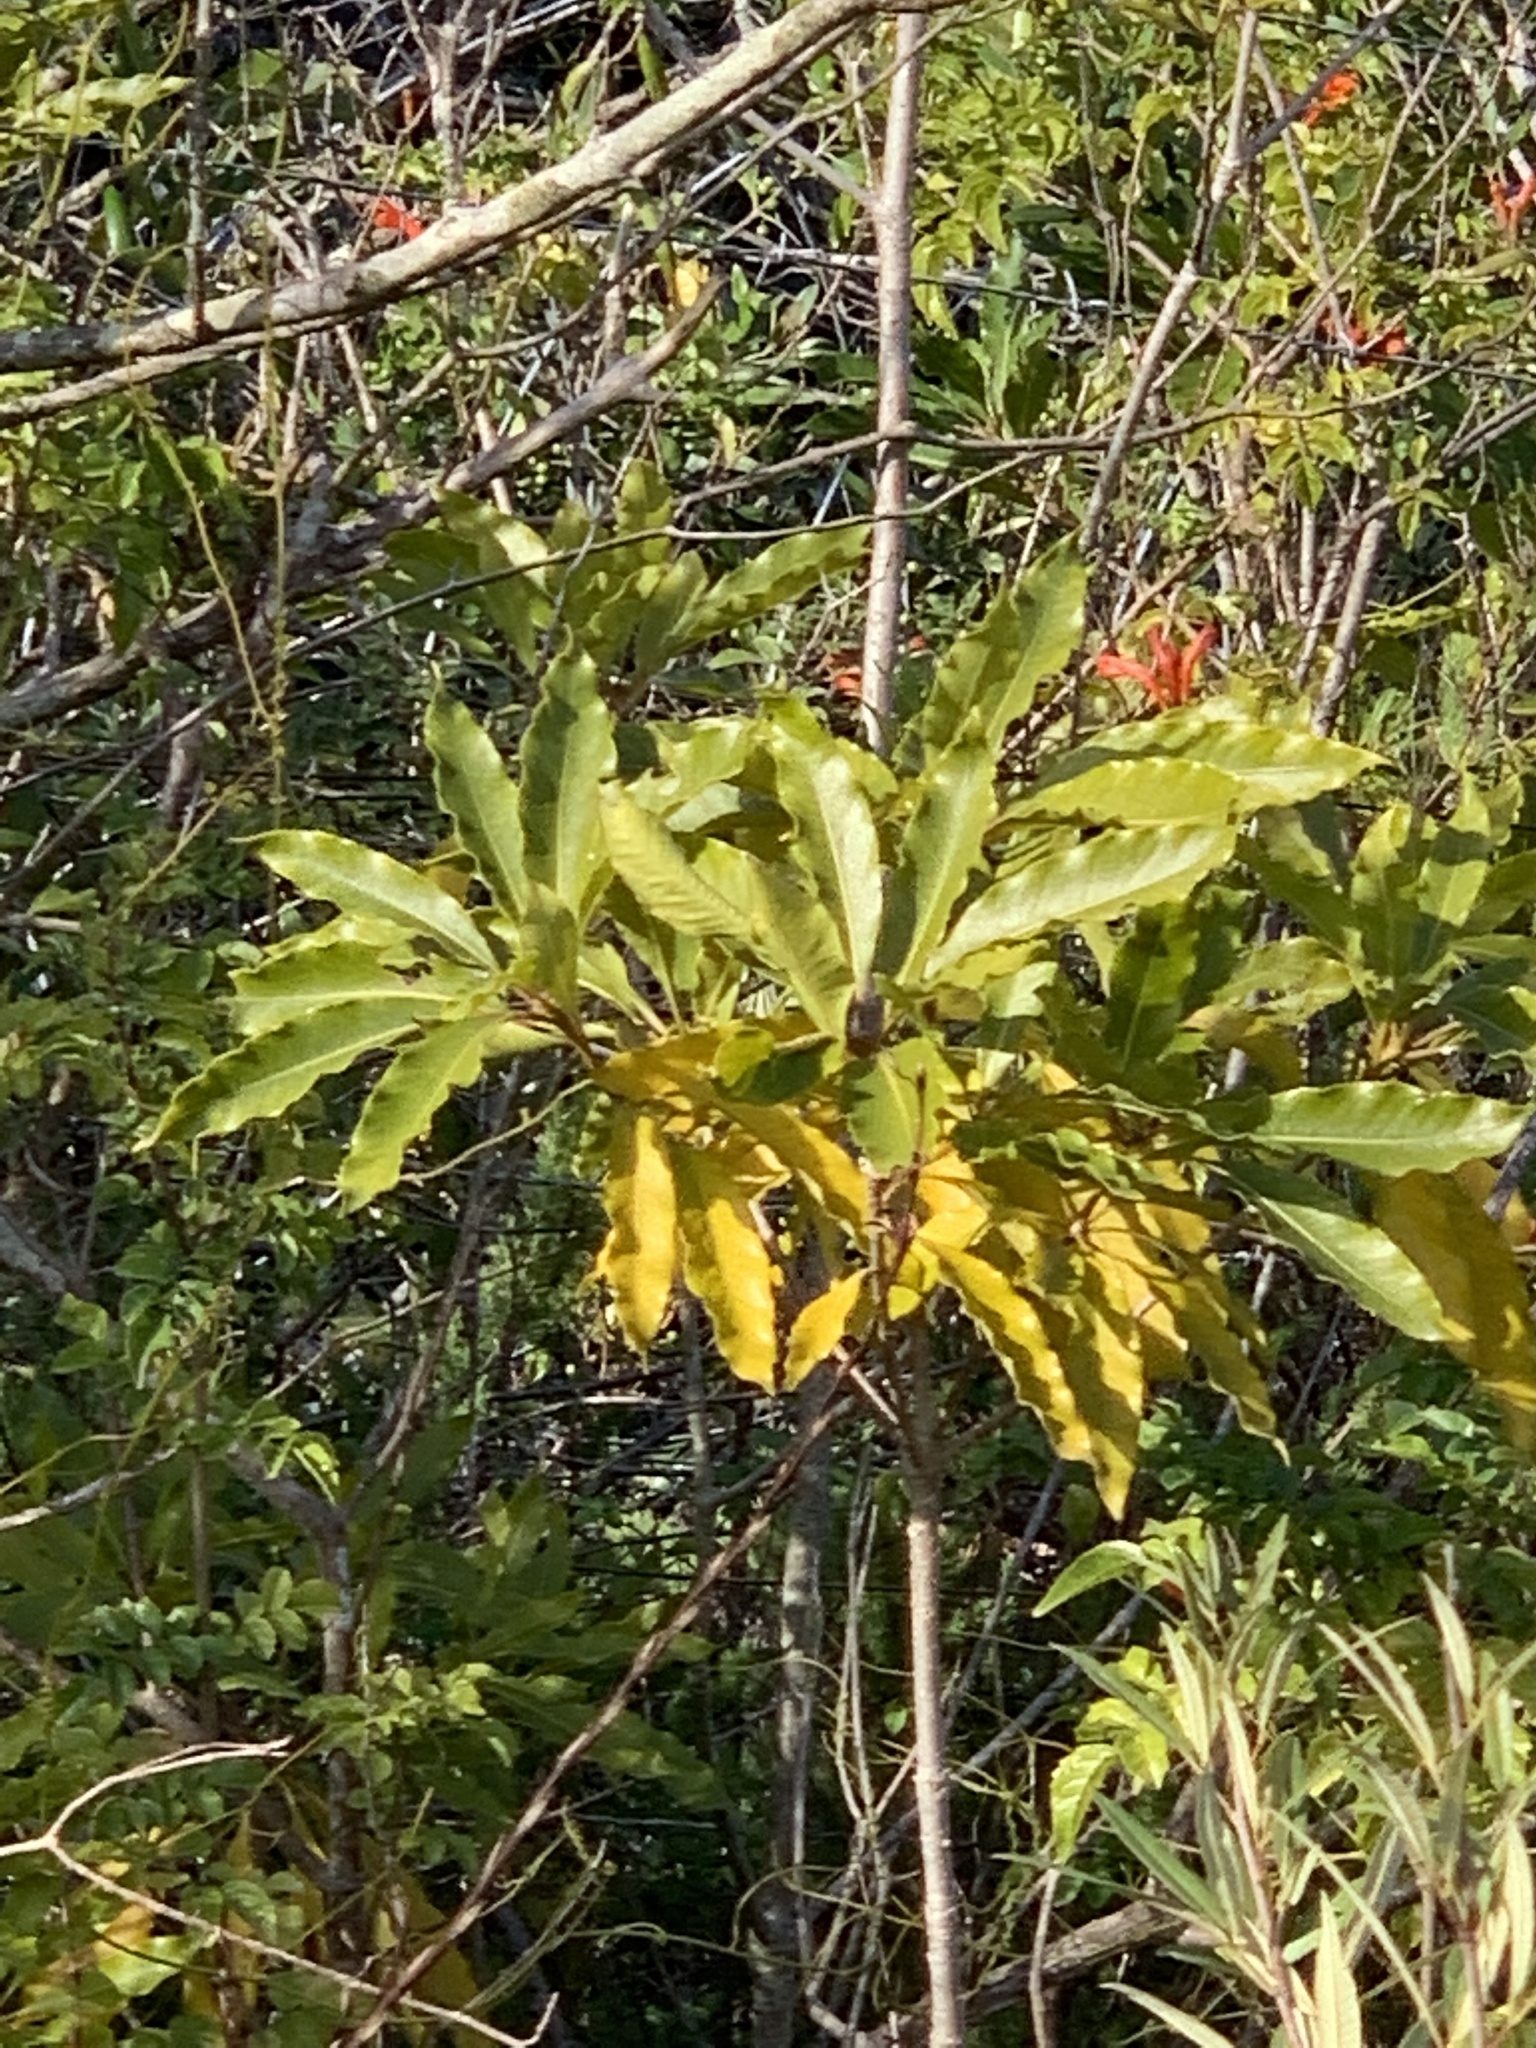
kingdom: Plantae
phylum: Tracheophyta
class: Magnoliopsida
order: Apiales
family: Pittosporaceae
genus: Pittosporum
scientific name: Pittosporum undulatum
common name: Australian cheesewood
